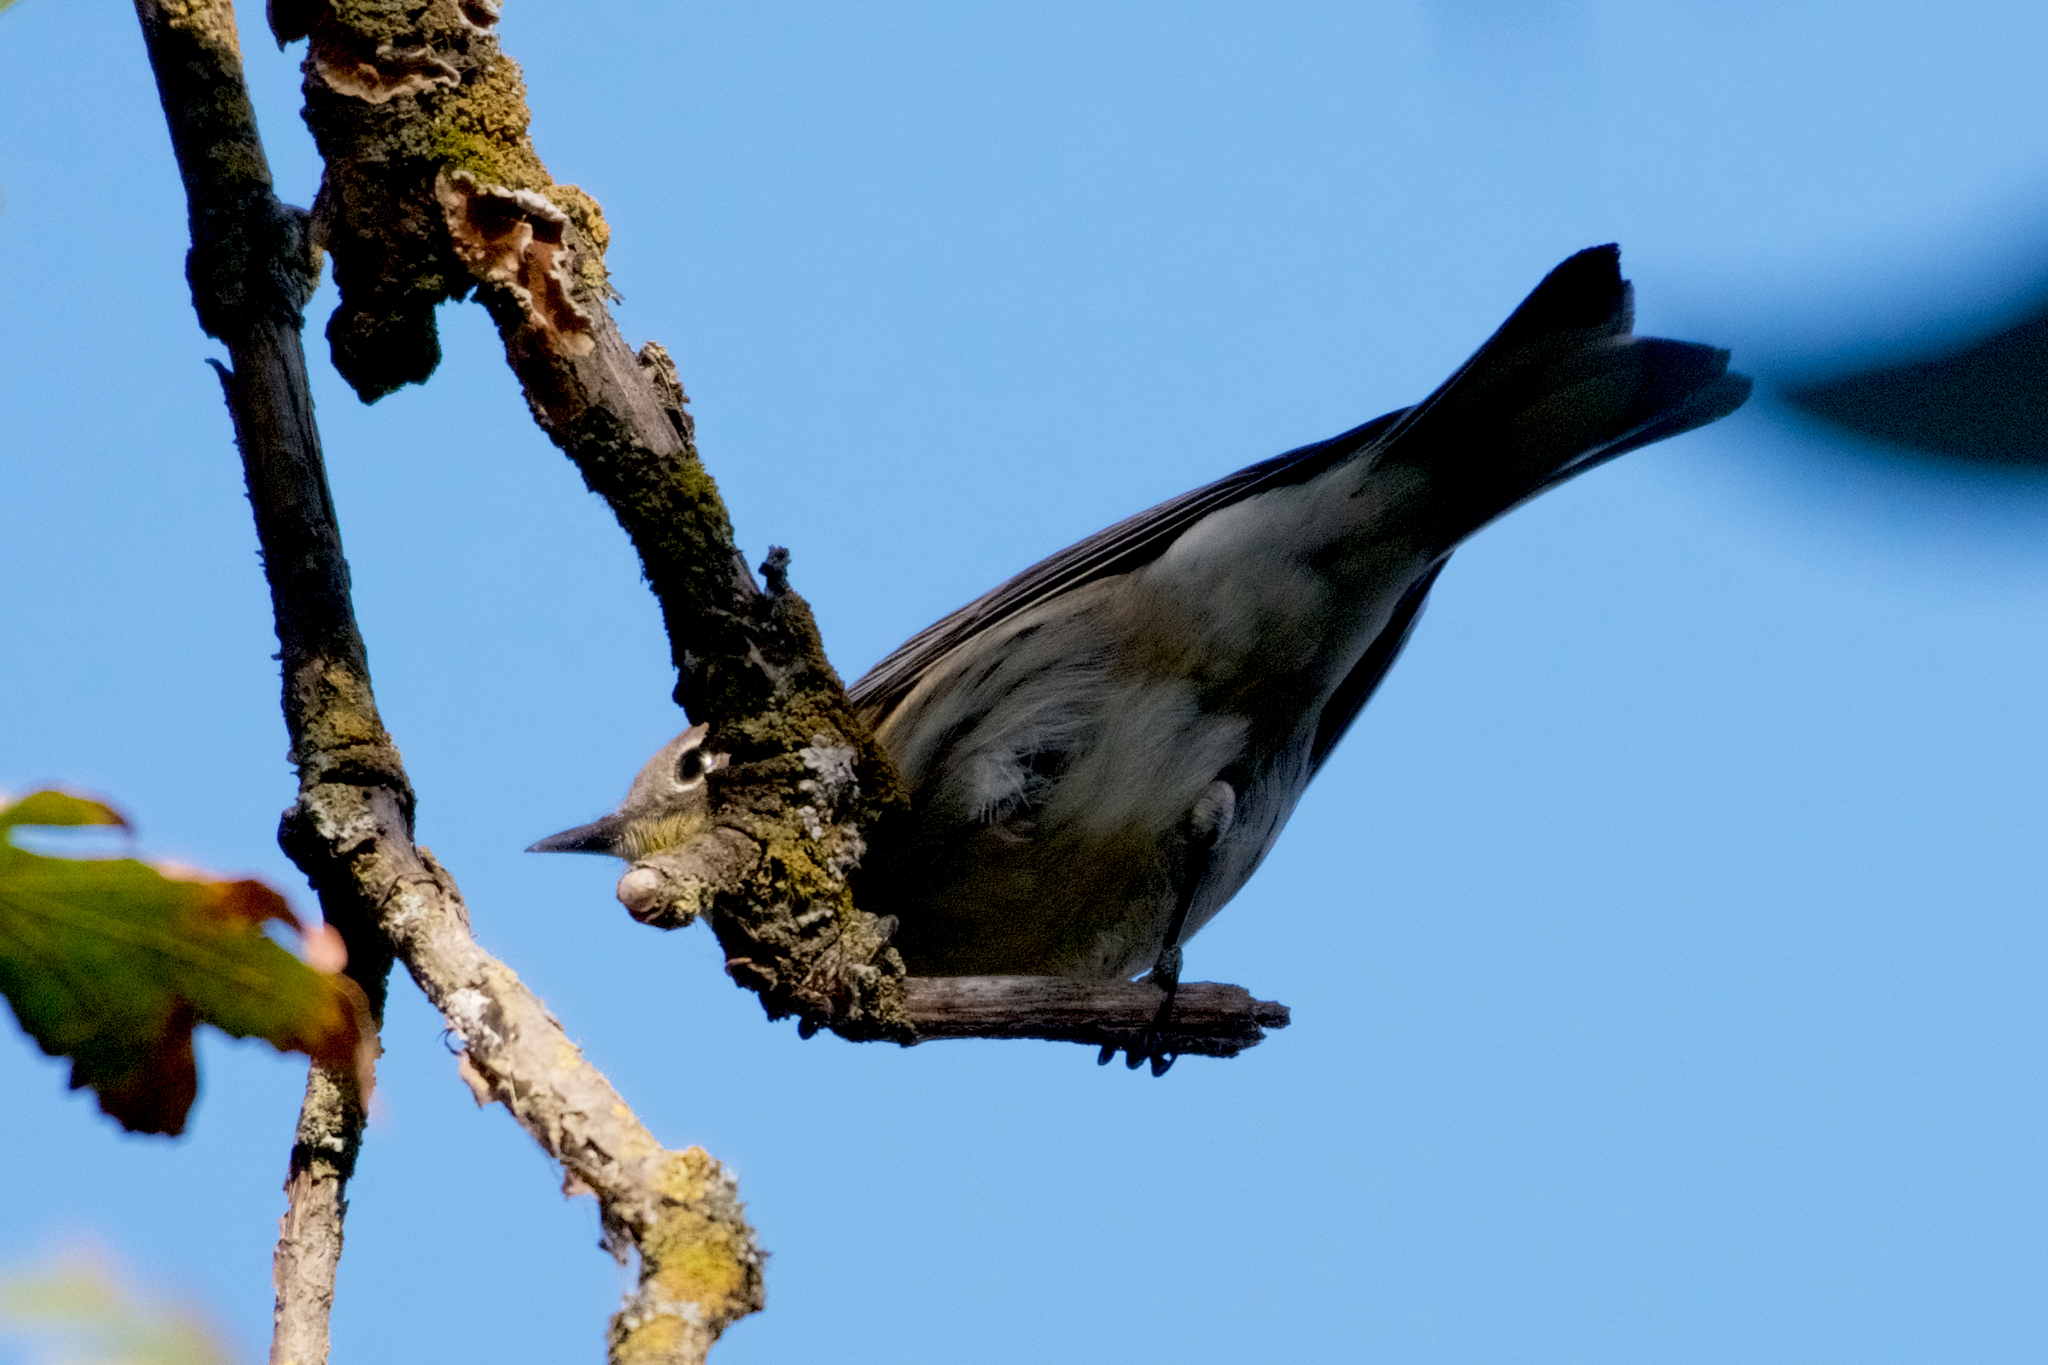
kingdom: Animalia
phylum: Chordata
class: Aves
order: Passeriformes
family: Parulidae
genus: Setophaga
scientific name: Setophaga coronata
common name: Myrtle warbler
